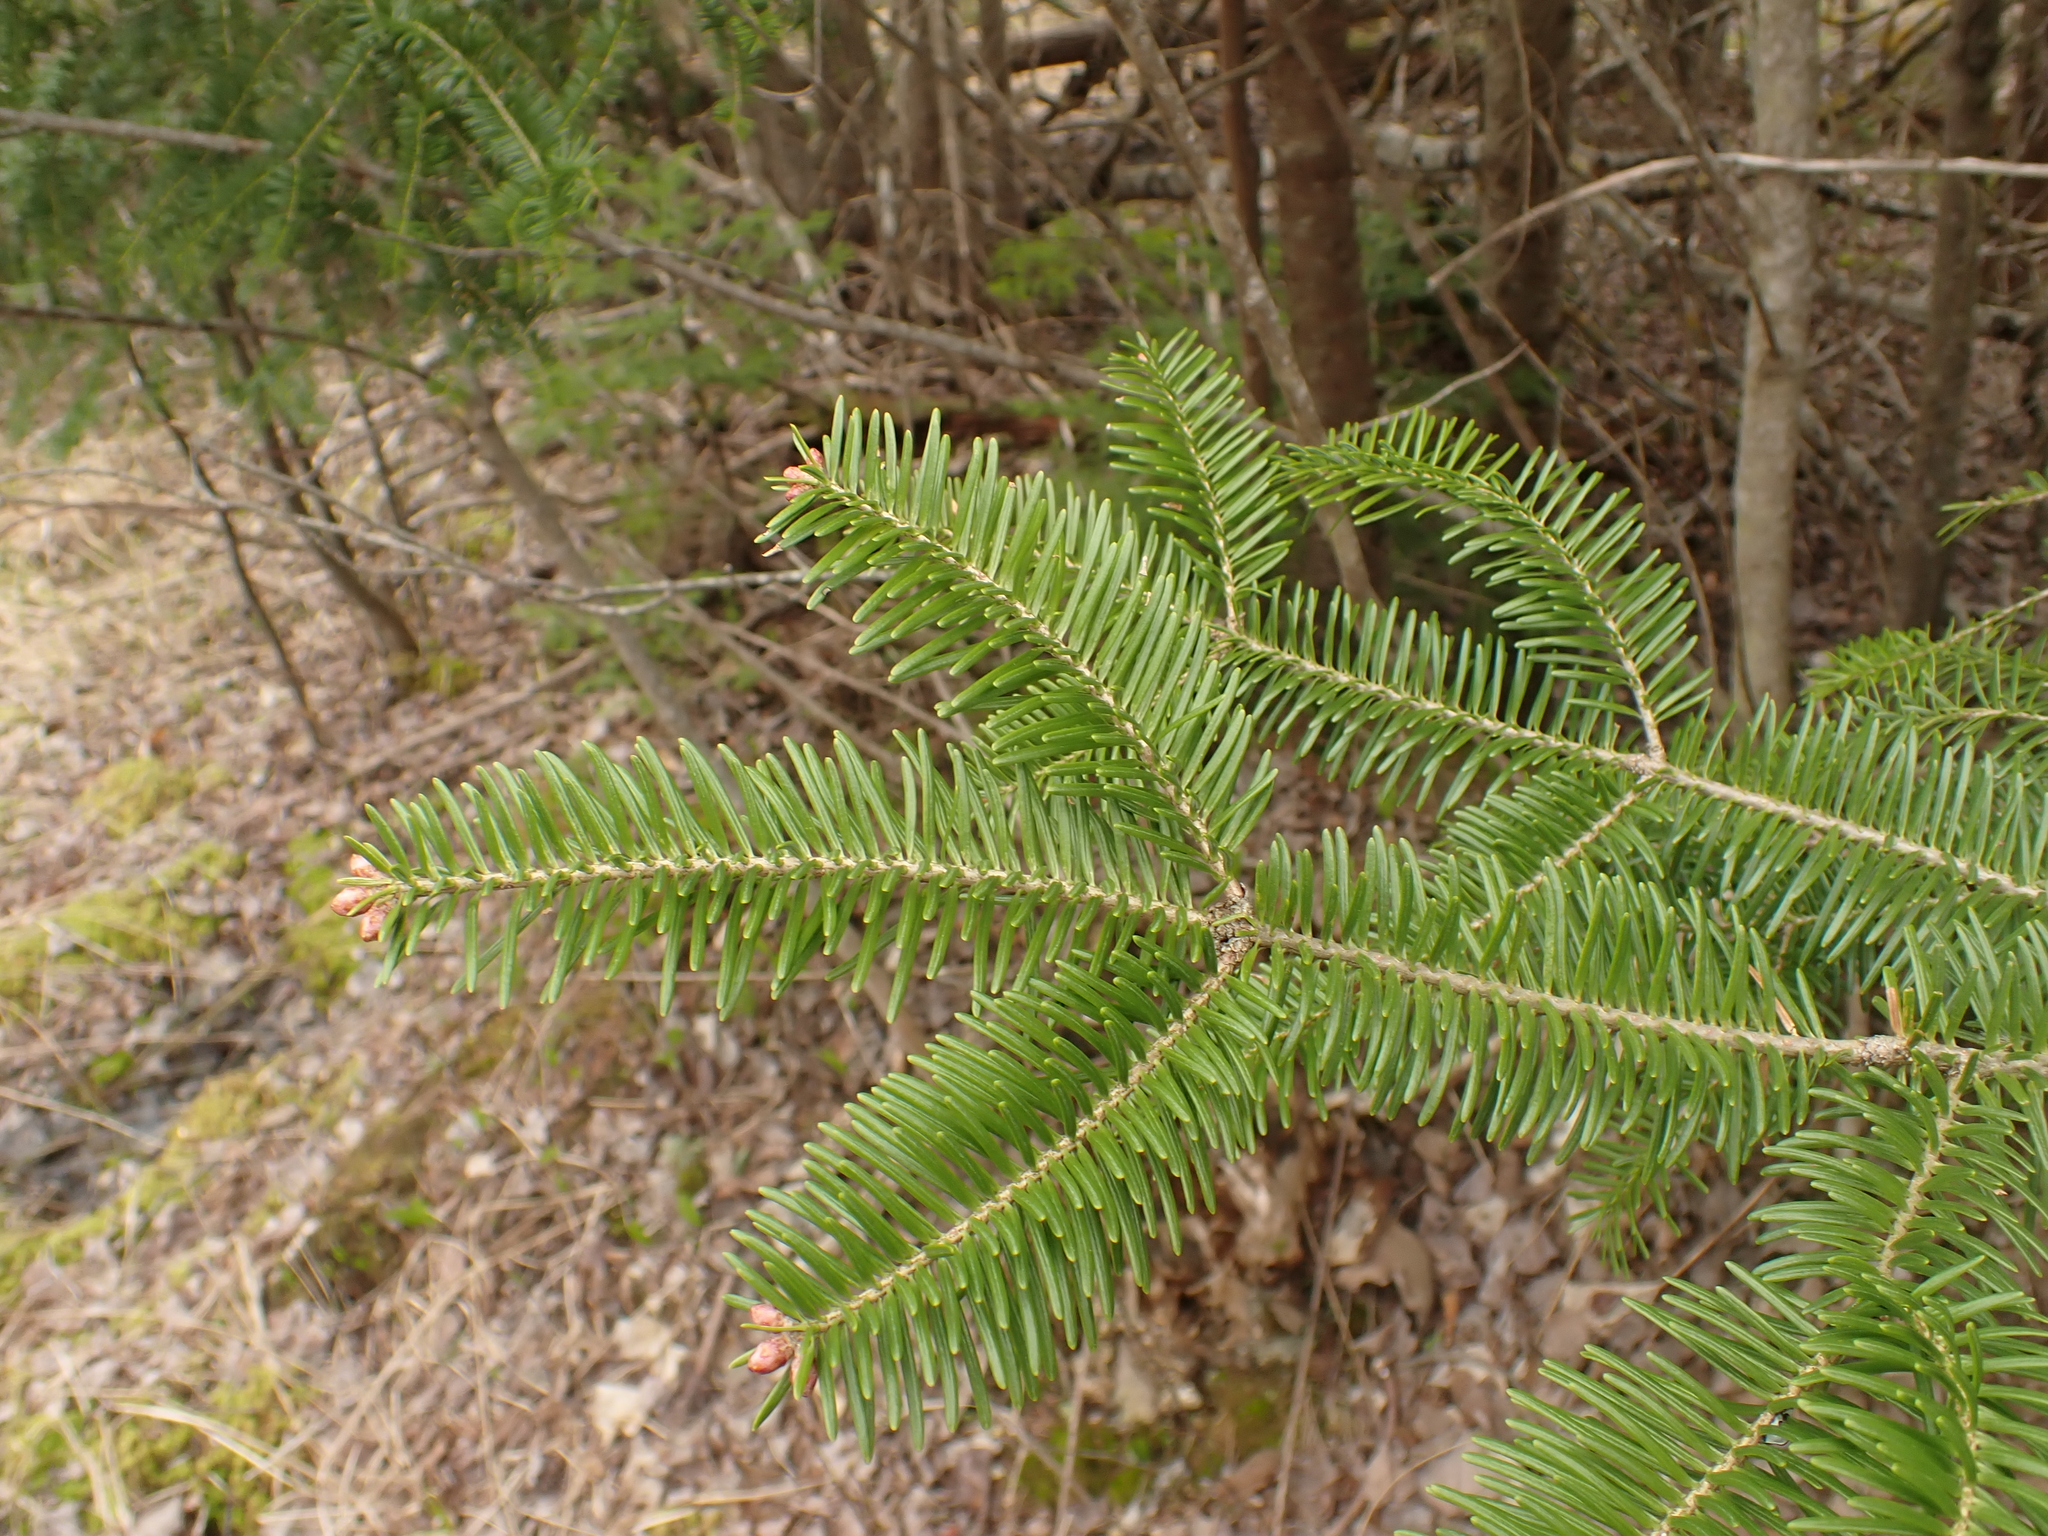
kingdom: Plantae
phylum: Tracheophyta
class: Pinopsida
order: Pinales
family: Pinaceae
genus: Abies
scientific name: Abies balsamea
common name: Balsam fir
